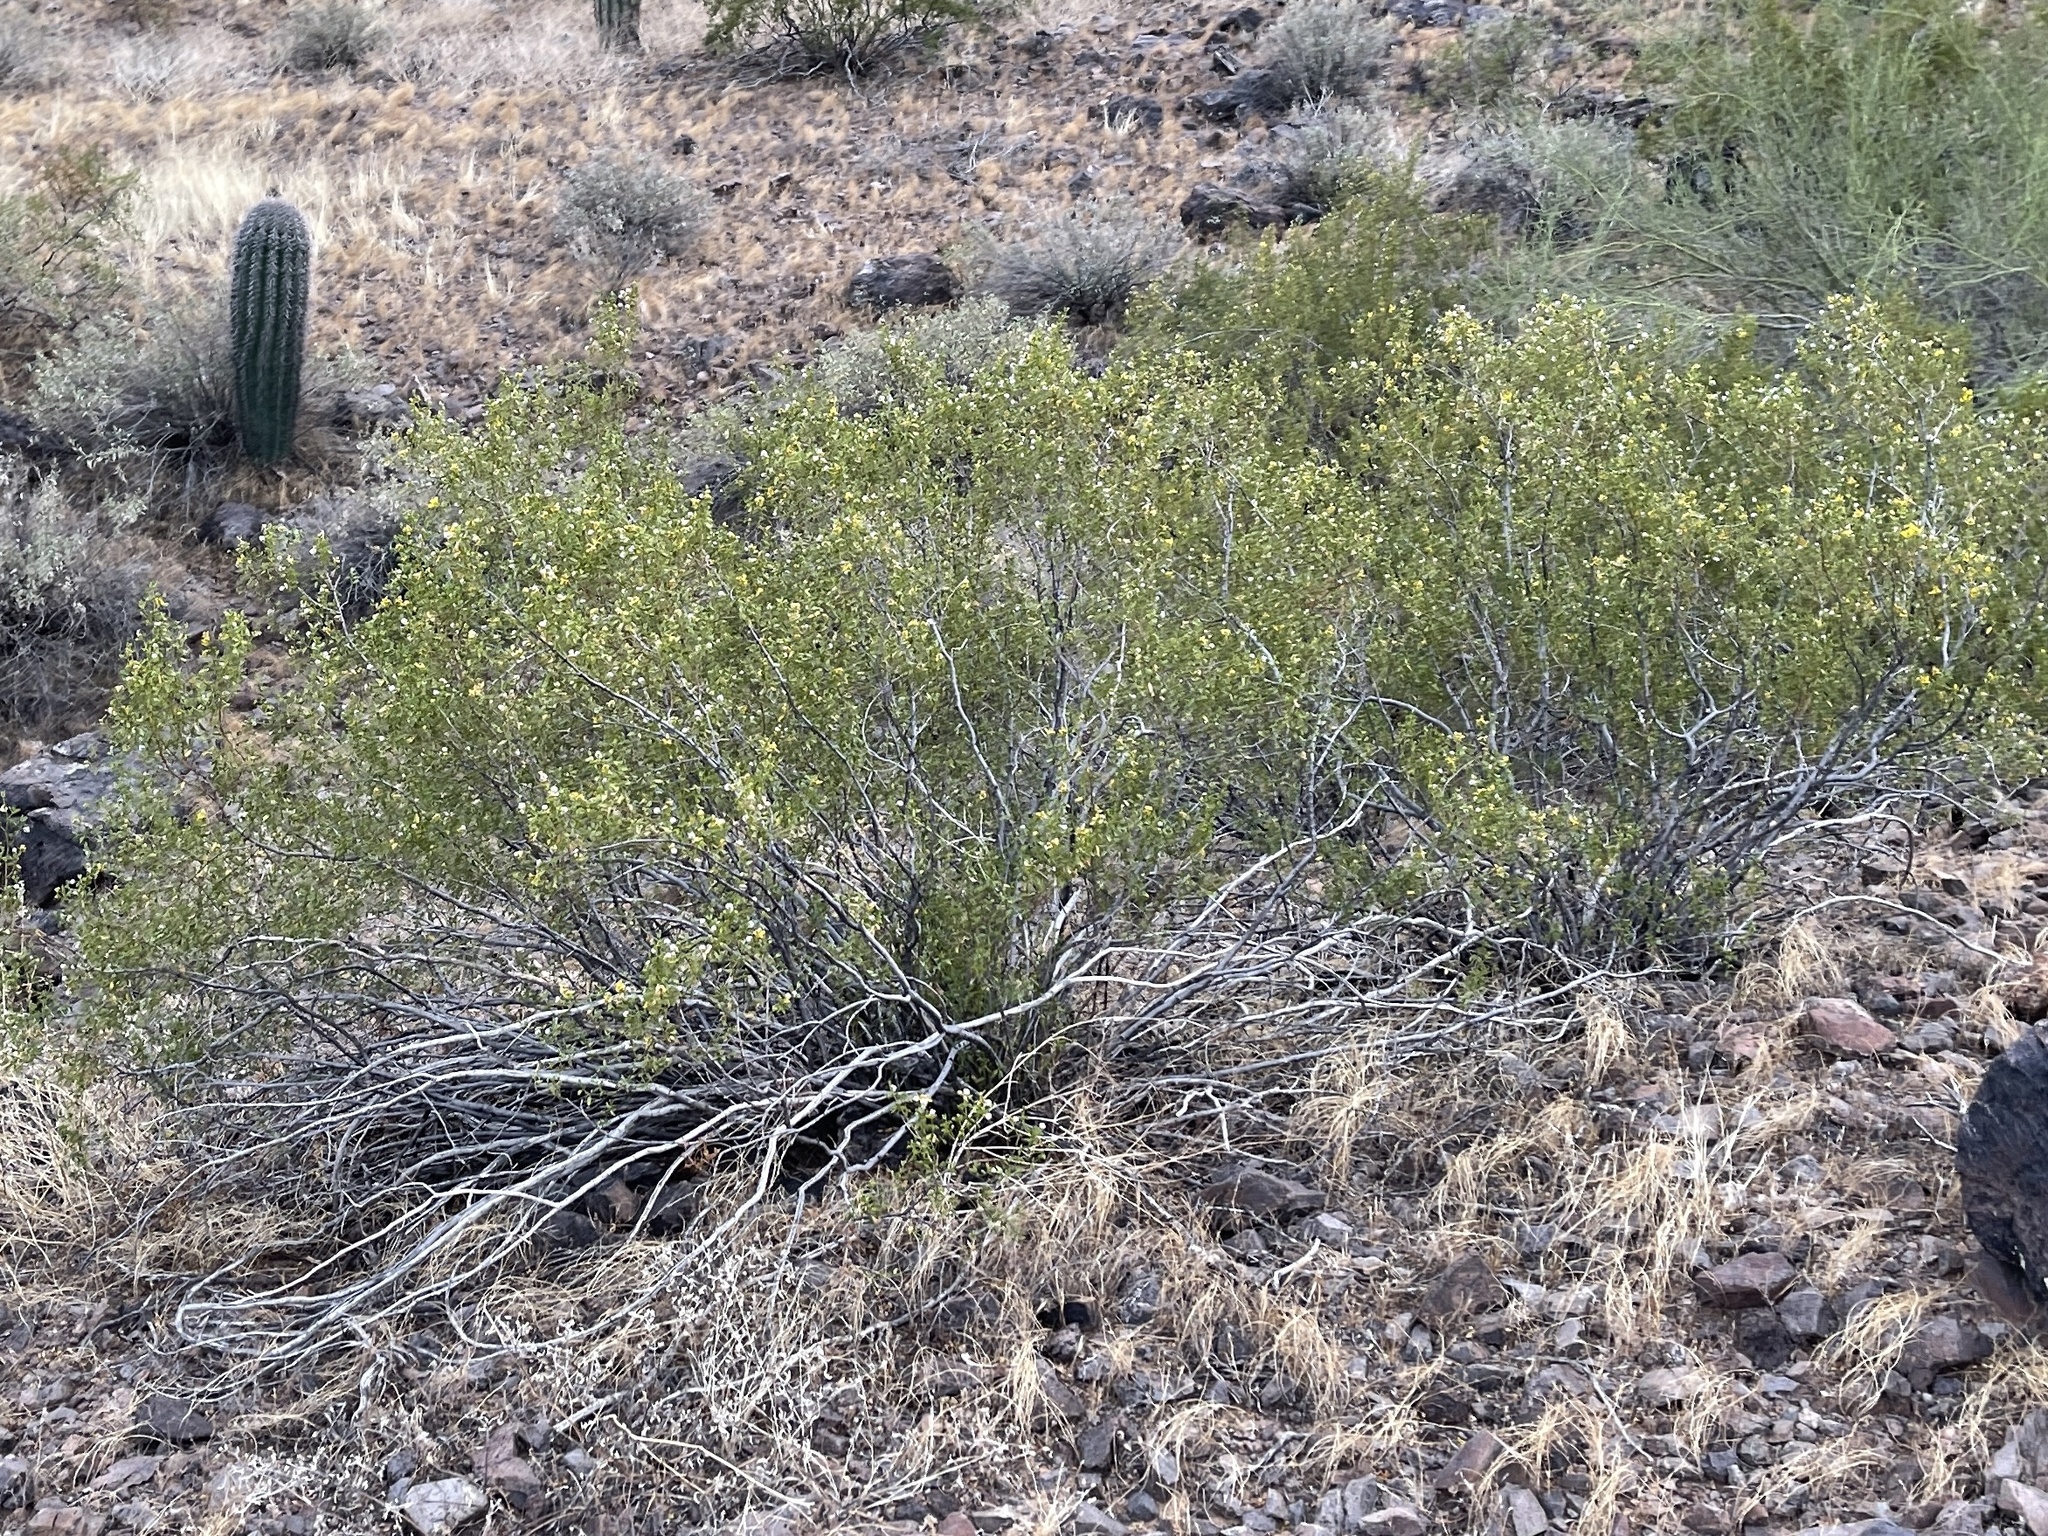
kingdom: Plantae
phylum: Tracheophyta
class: Magnoliopsida
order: Zygophyllales
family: Zygophyllaceae
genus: Larrea
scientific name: Larrea tridentata
